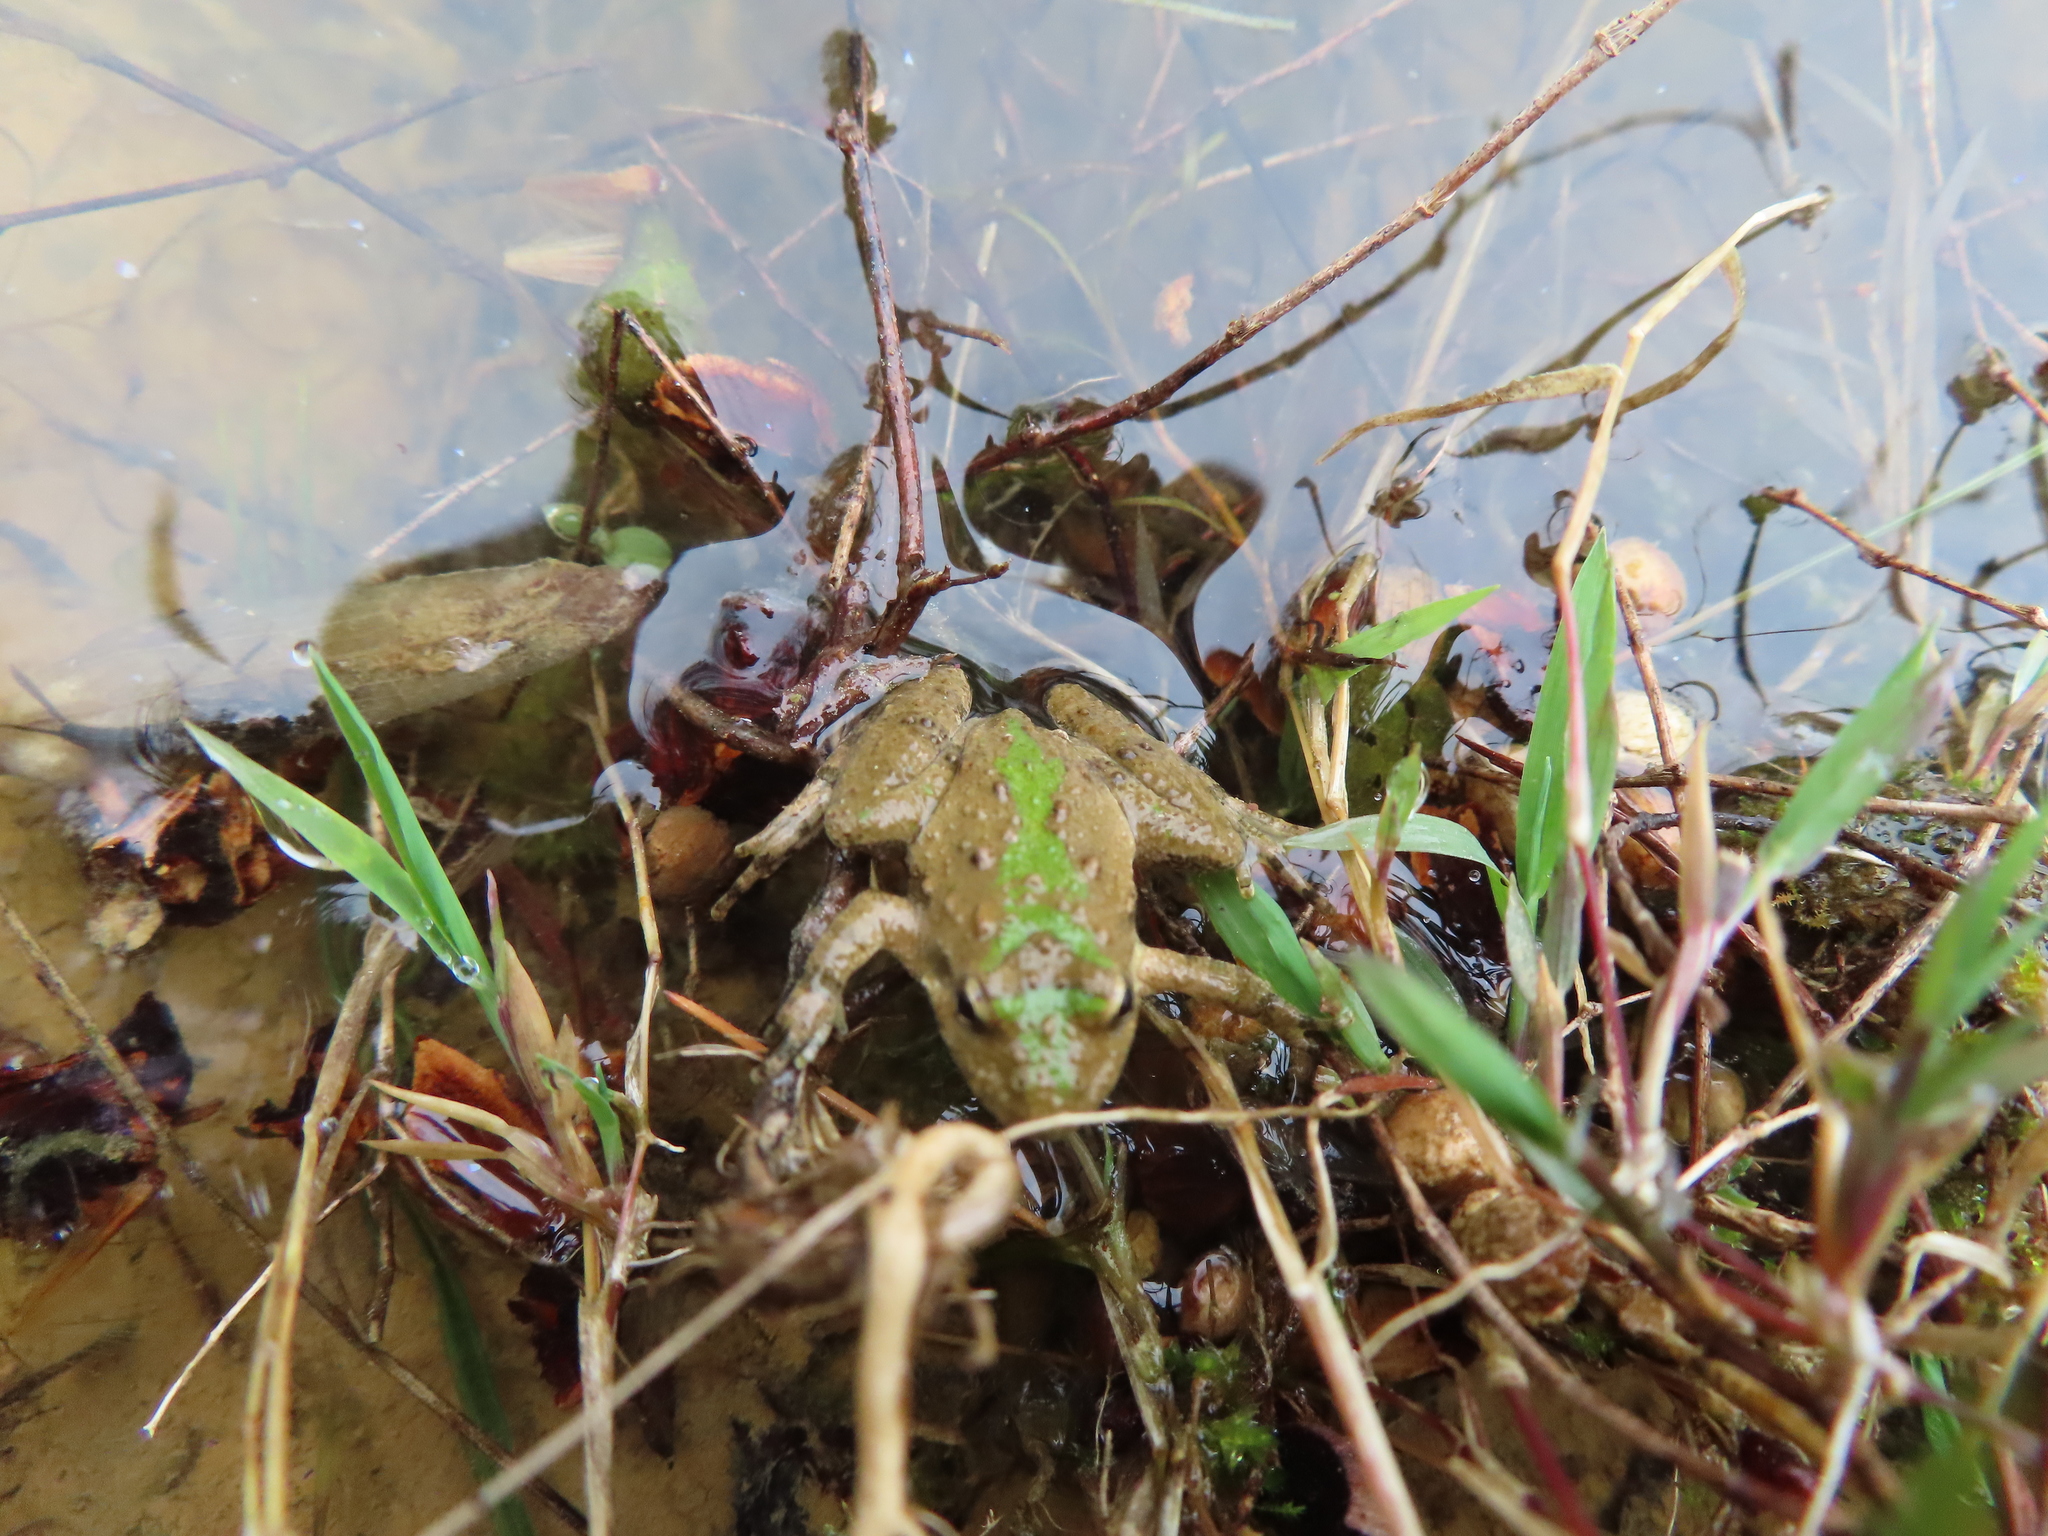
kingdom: Animalia
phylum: Chordata
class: Amphibia
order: Anura
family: Hylidae
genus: Acris
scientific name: Acris blanchardi
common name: Blanchard's cricket frog
